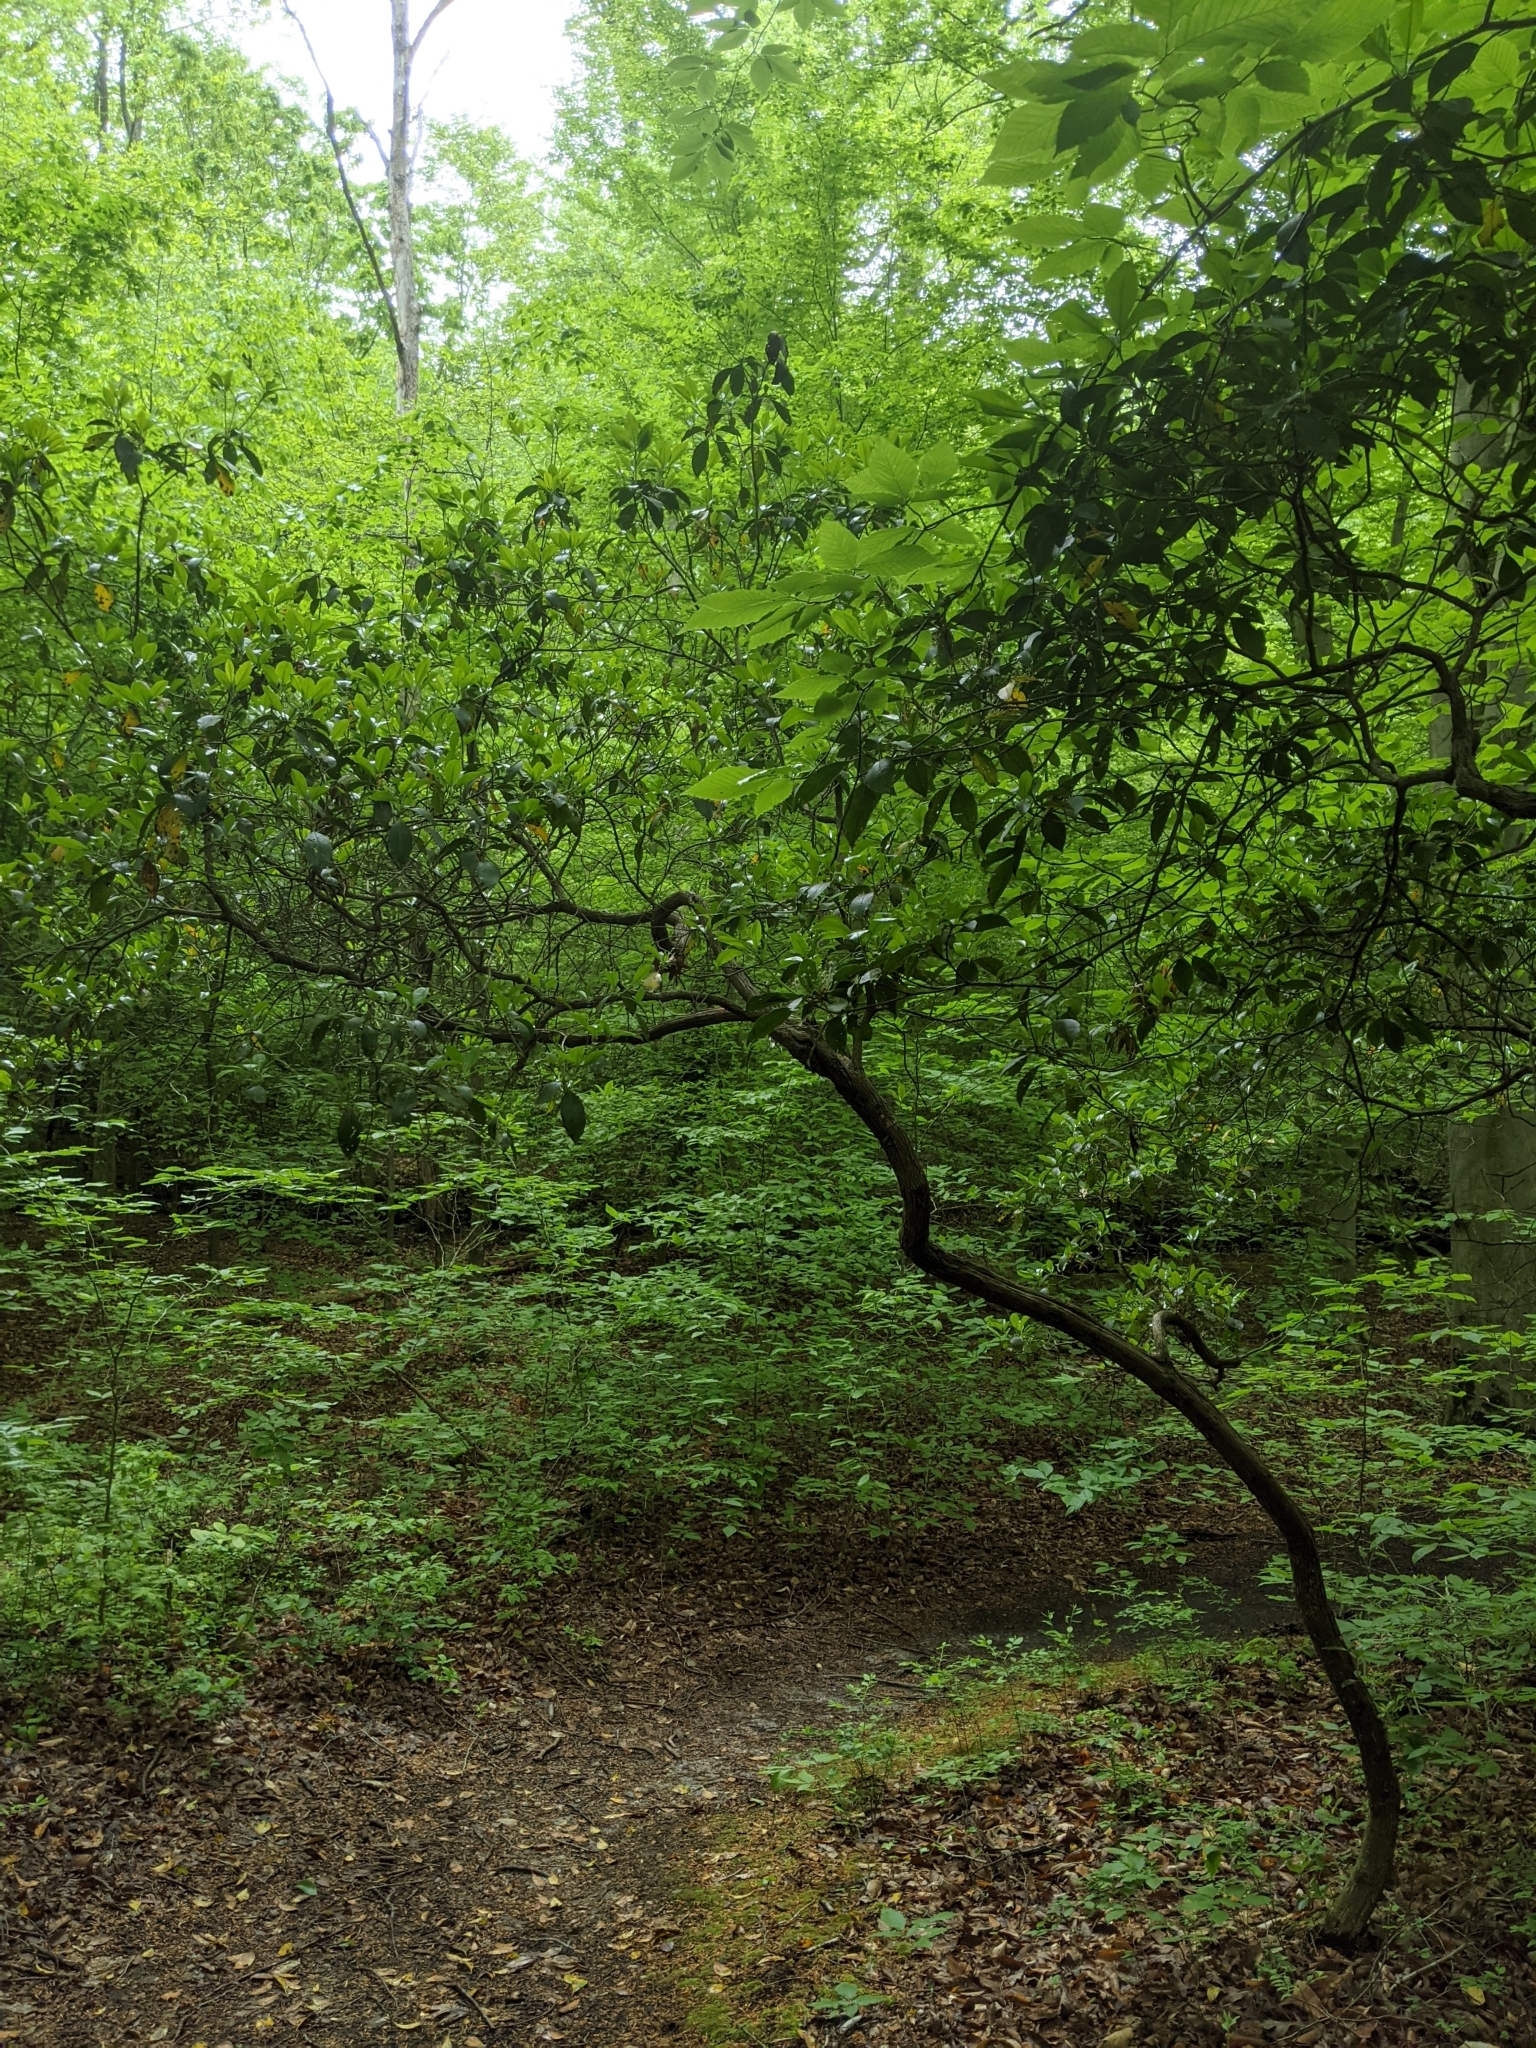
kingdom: Plantae
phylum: Tracheophyta
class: Magnoliopsida
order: Ericales
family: Ericaceae
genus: Kalmia
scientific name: Kalmia latifolia
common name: Mountain-laurel
